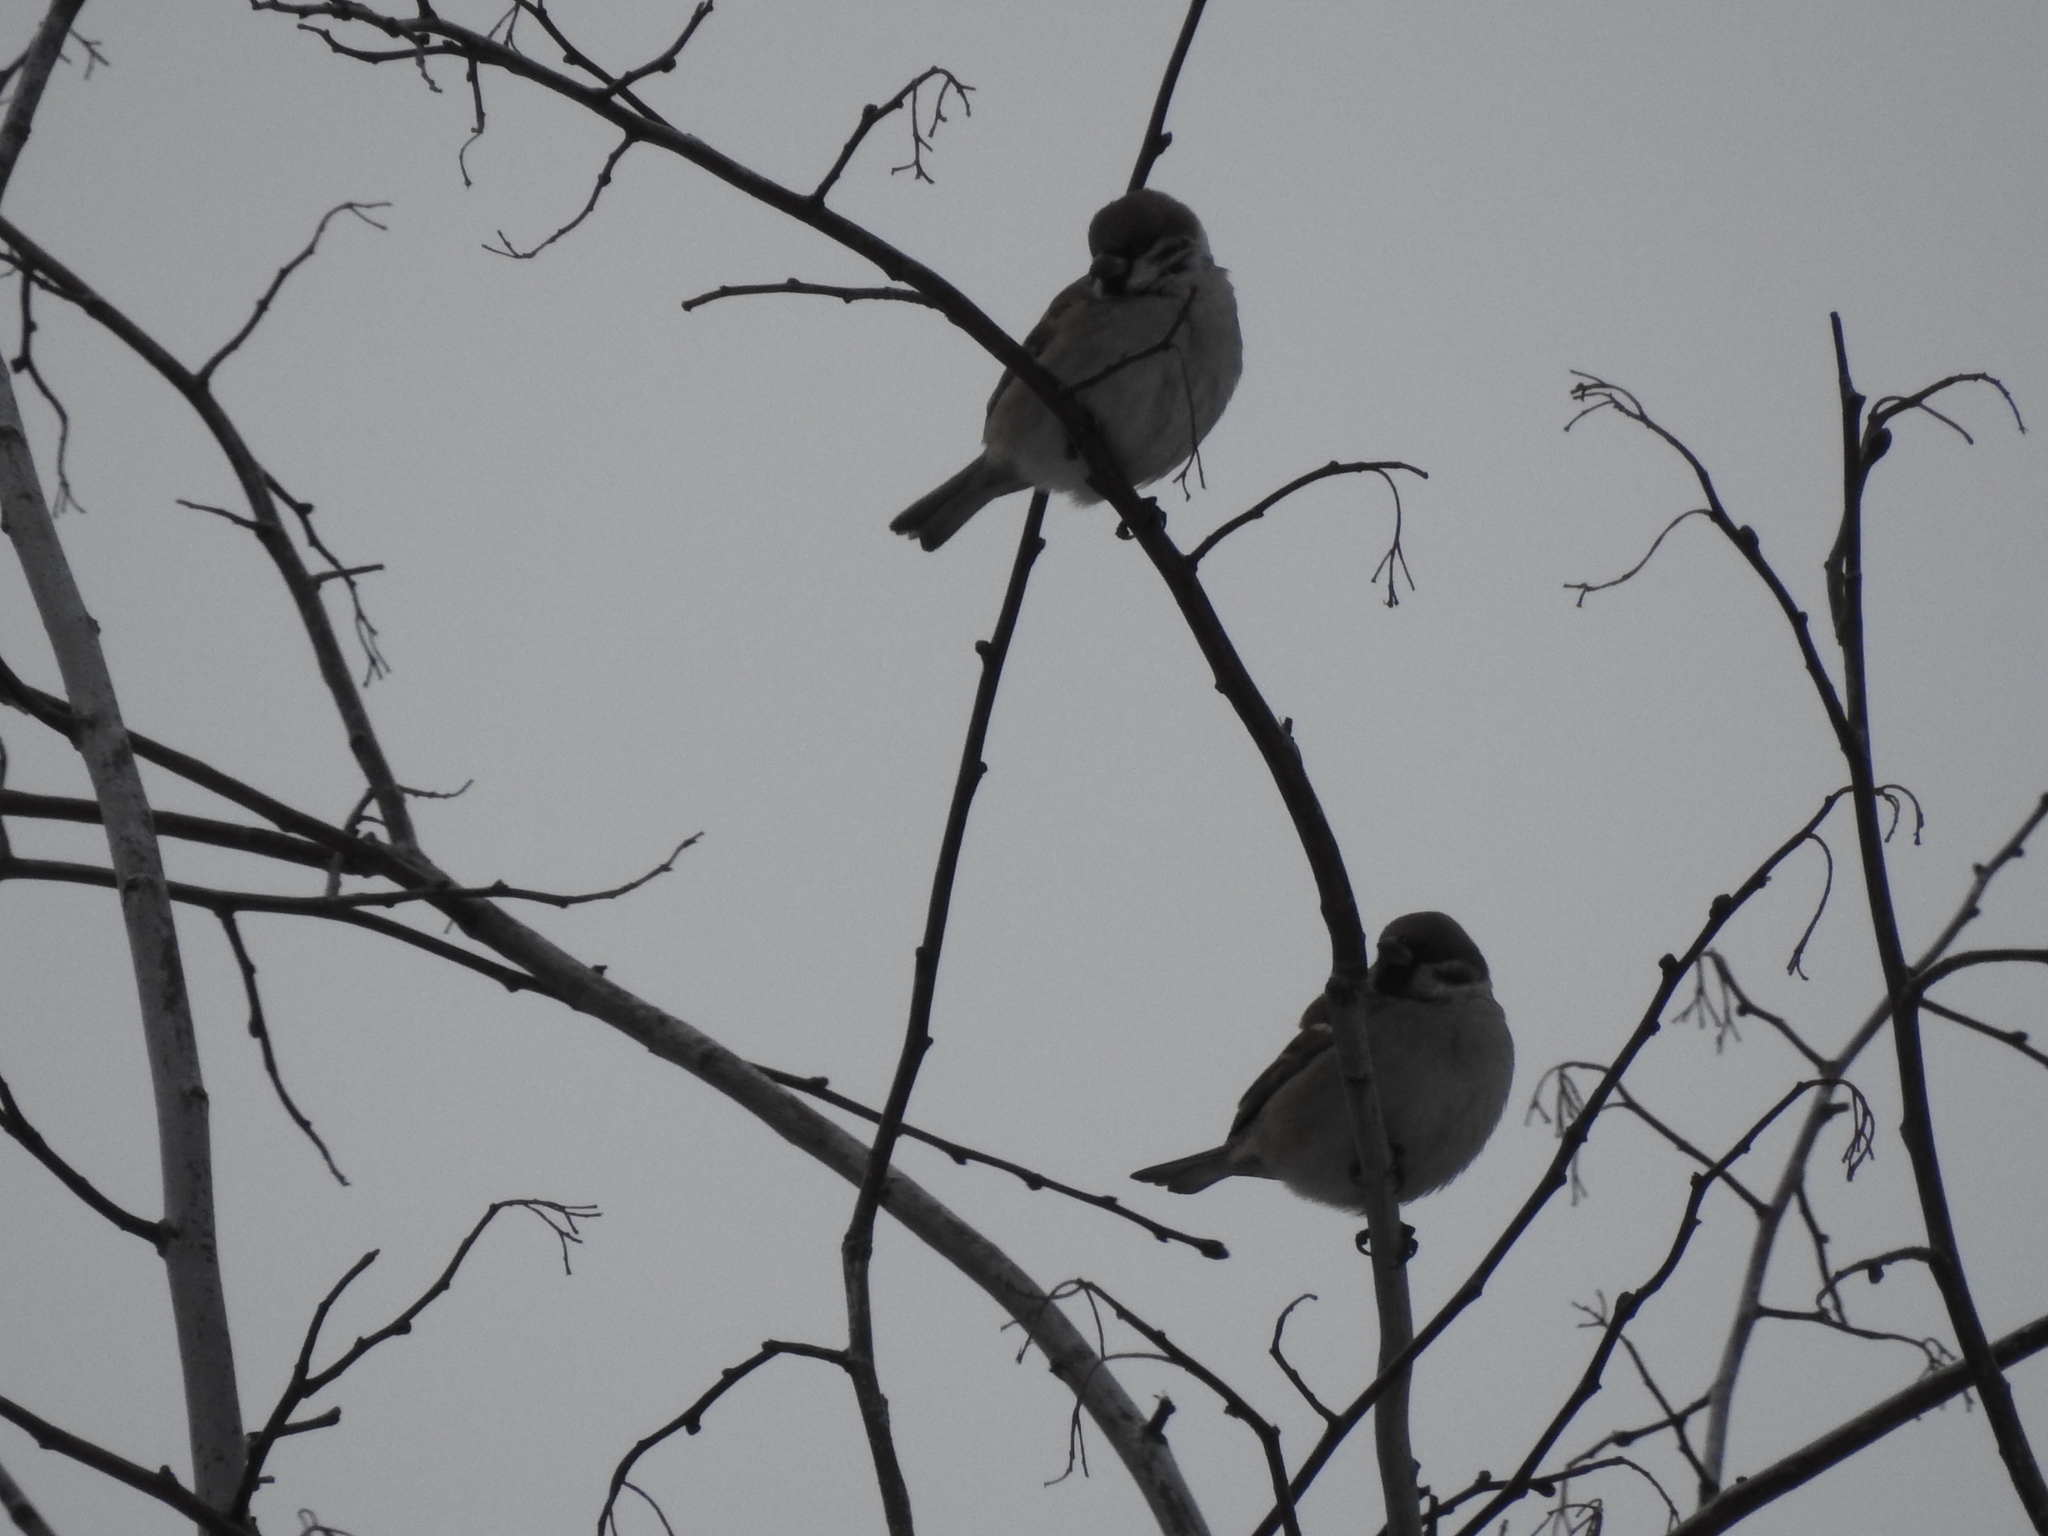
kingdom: Animalia
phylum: Chordata
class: Aves
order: Passeriformes
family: Passeridae
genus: Passer
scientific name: Passer montanus
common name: Eurasian tree sparrow
